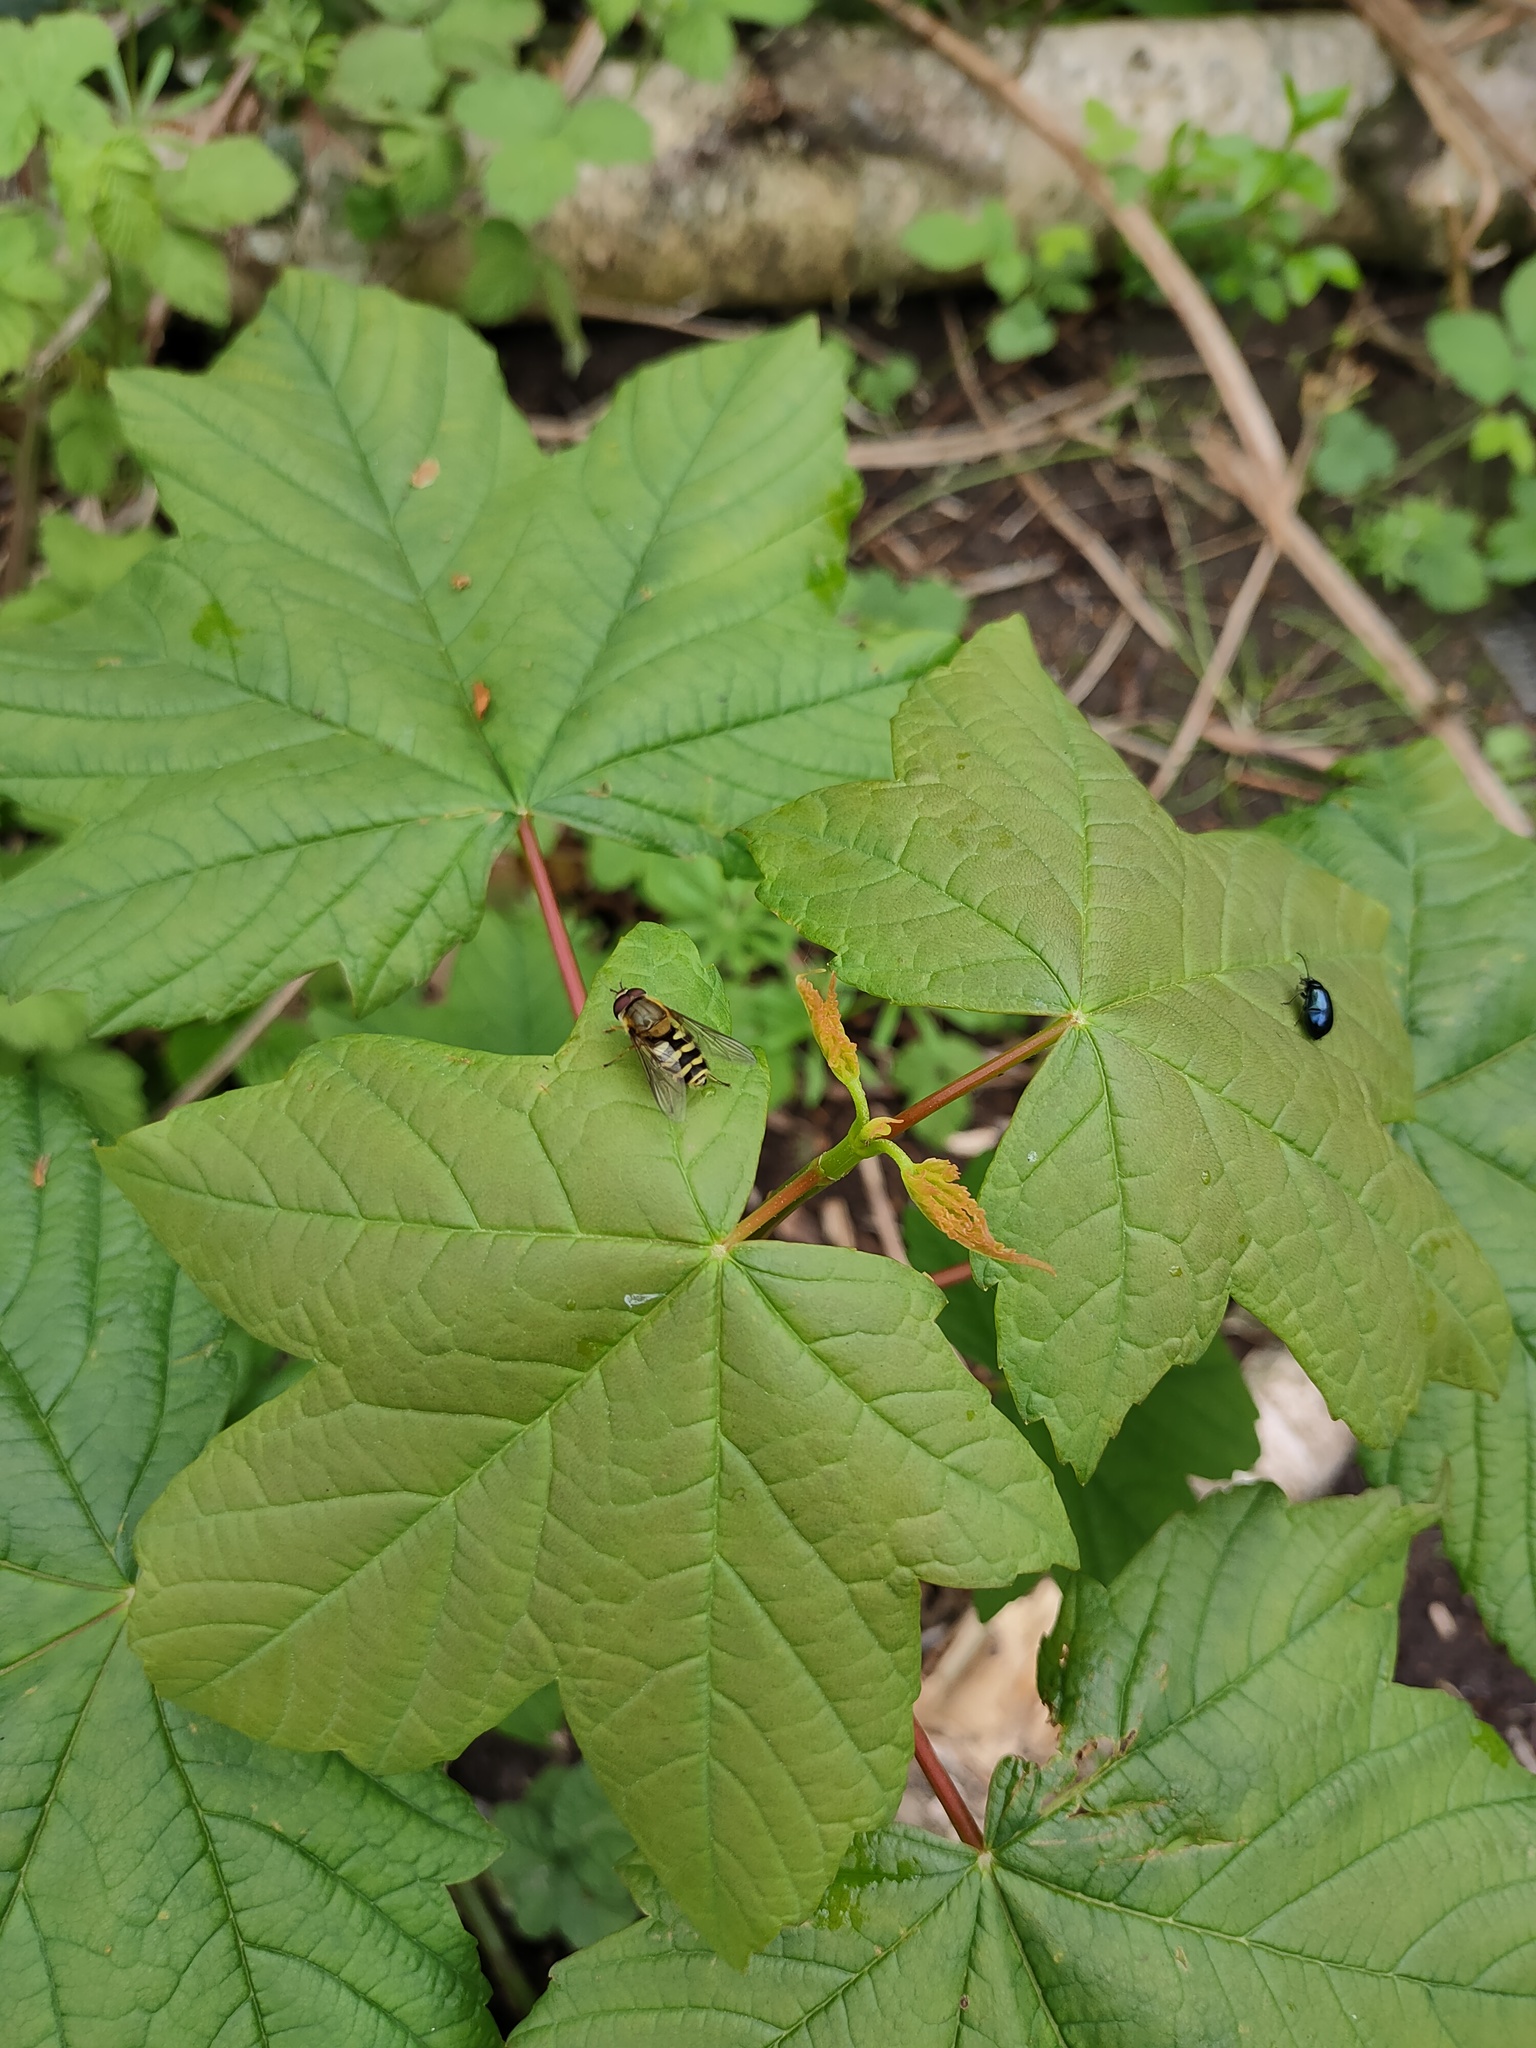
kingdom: Animalia
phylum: Arthropoda
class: Insecta
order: Diptera
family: Syrphidae
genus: Syrphus
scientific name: Syrphus
